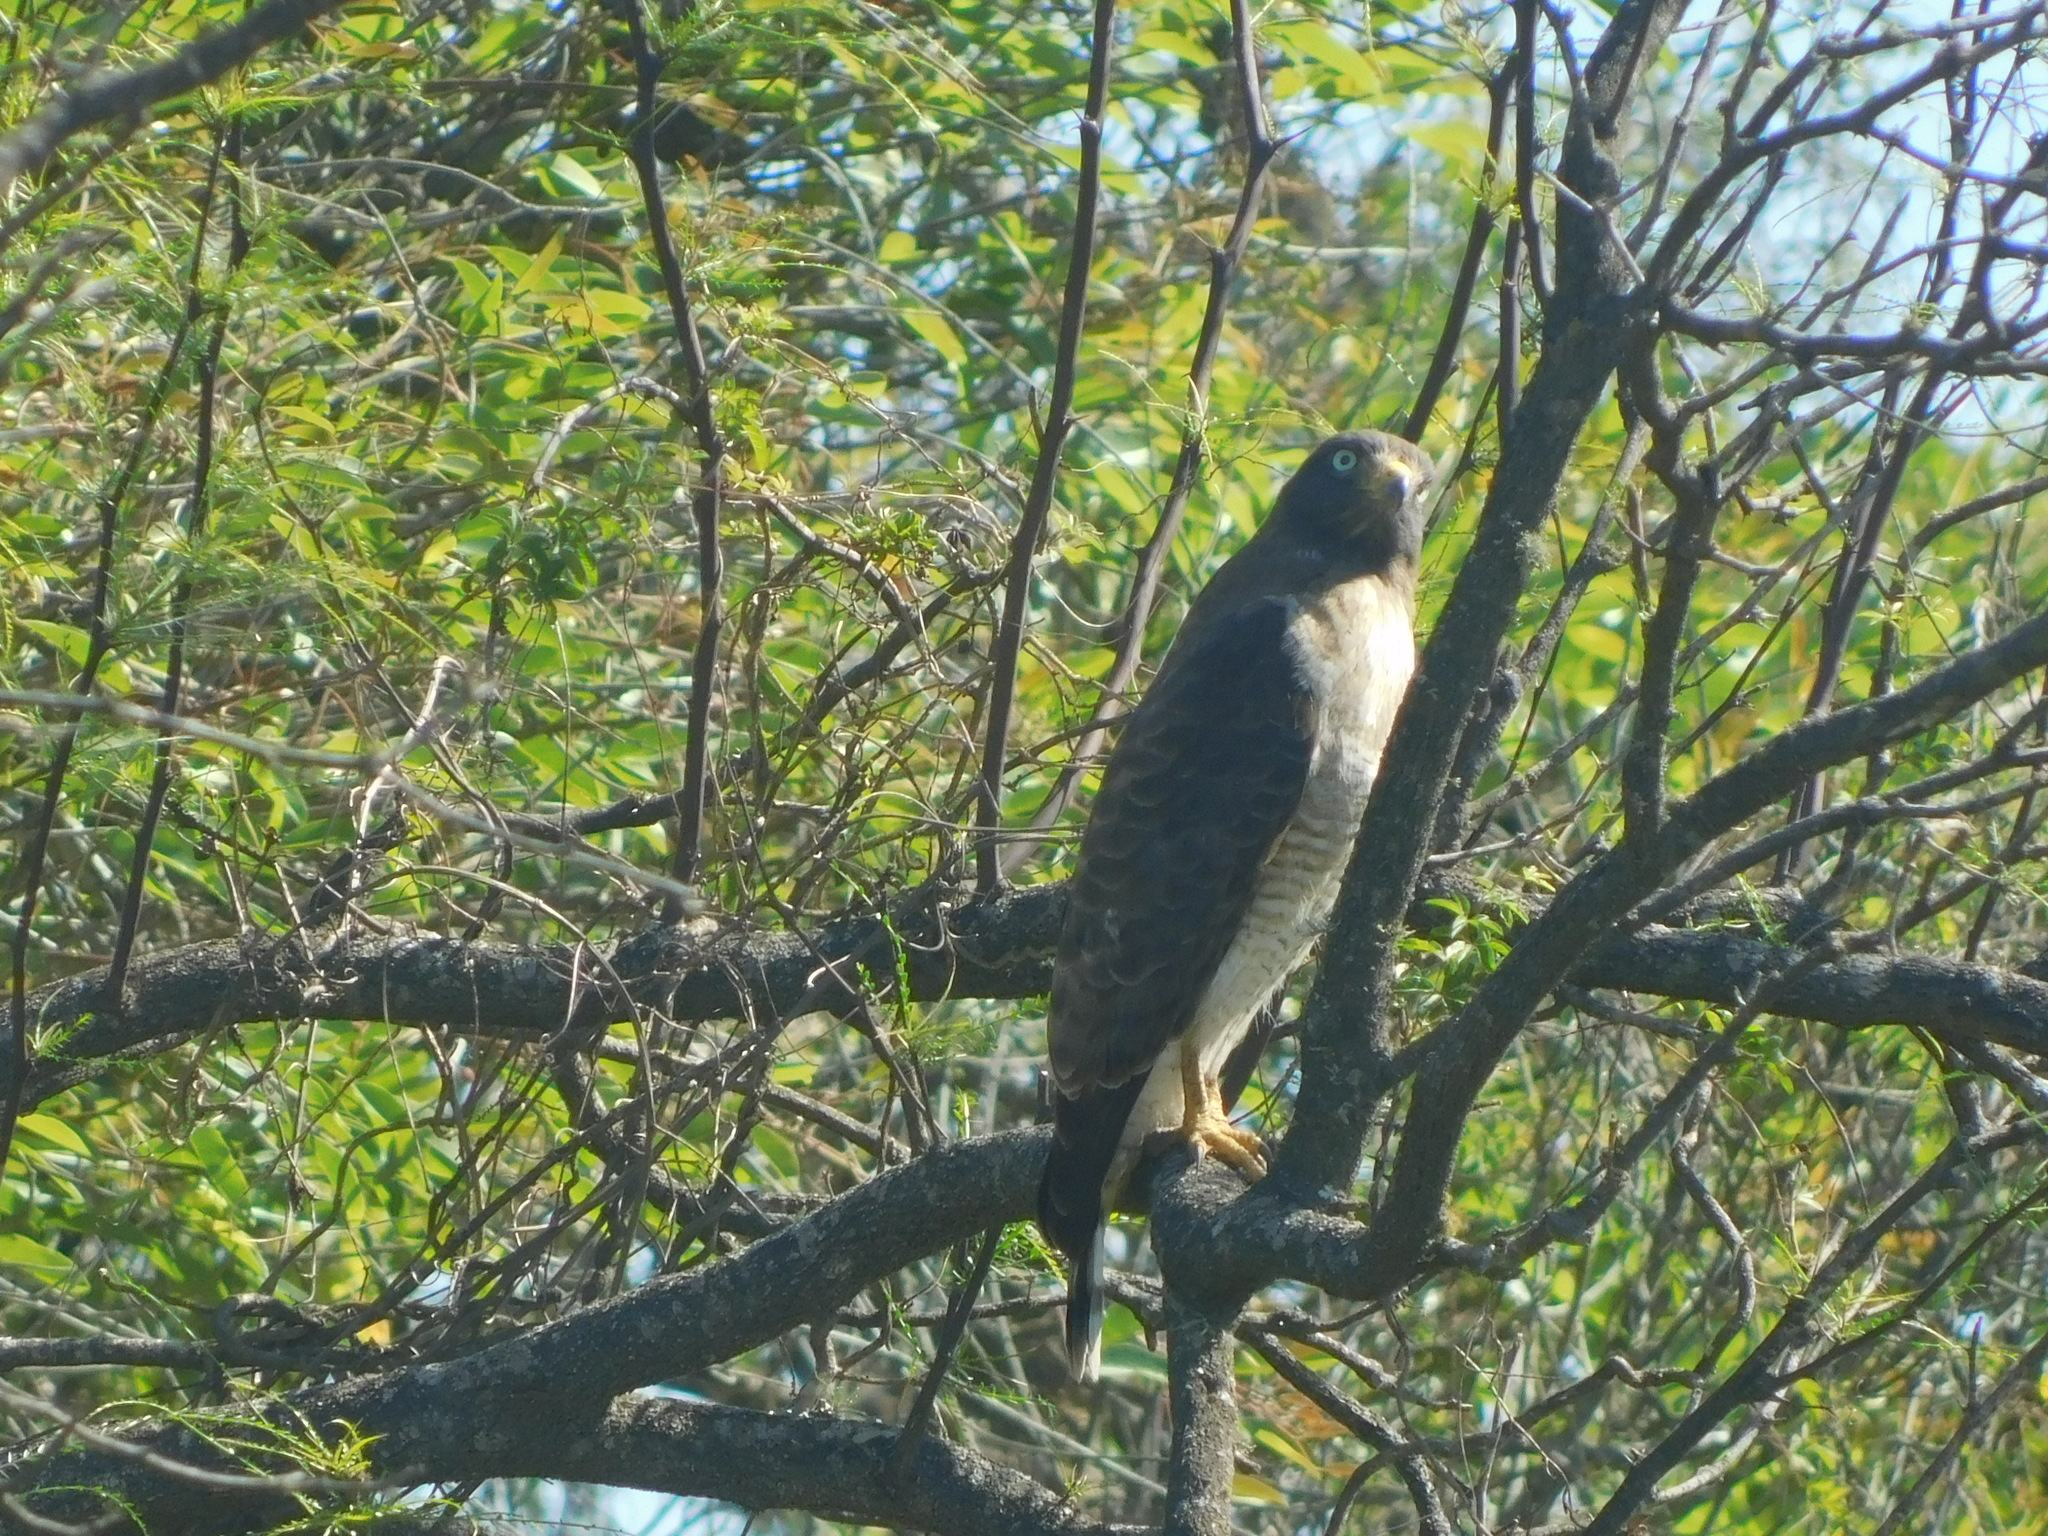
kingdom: Animalia
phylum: Chordata
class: Aves
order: Accipitriformes
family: Accipitridae
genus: Rupornis
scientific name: Rupornis magnirostris
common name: Roadside hawk
